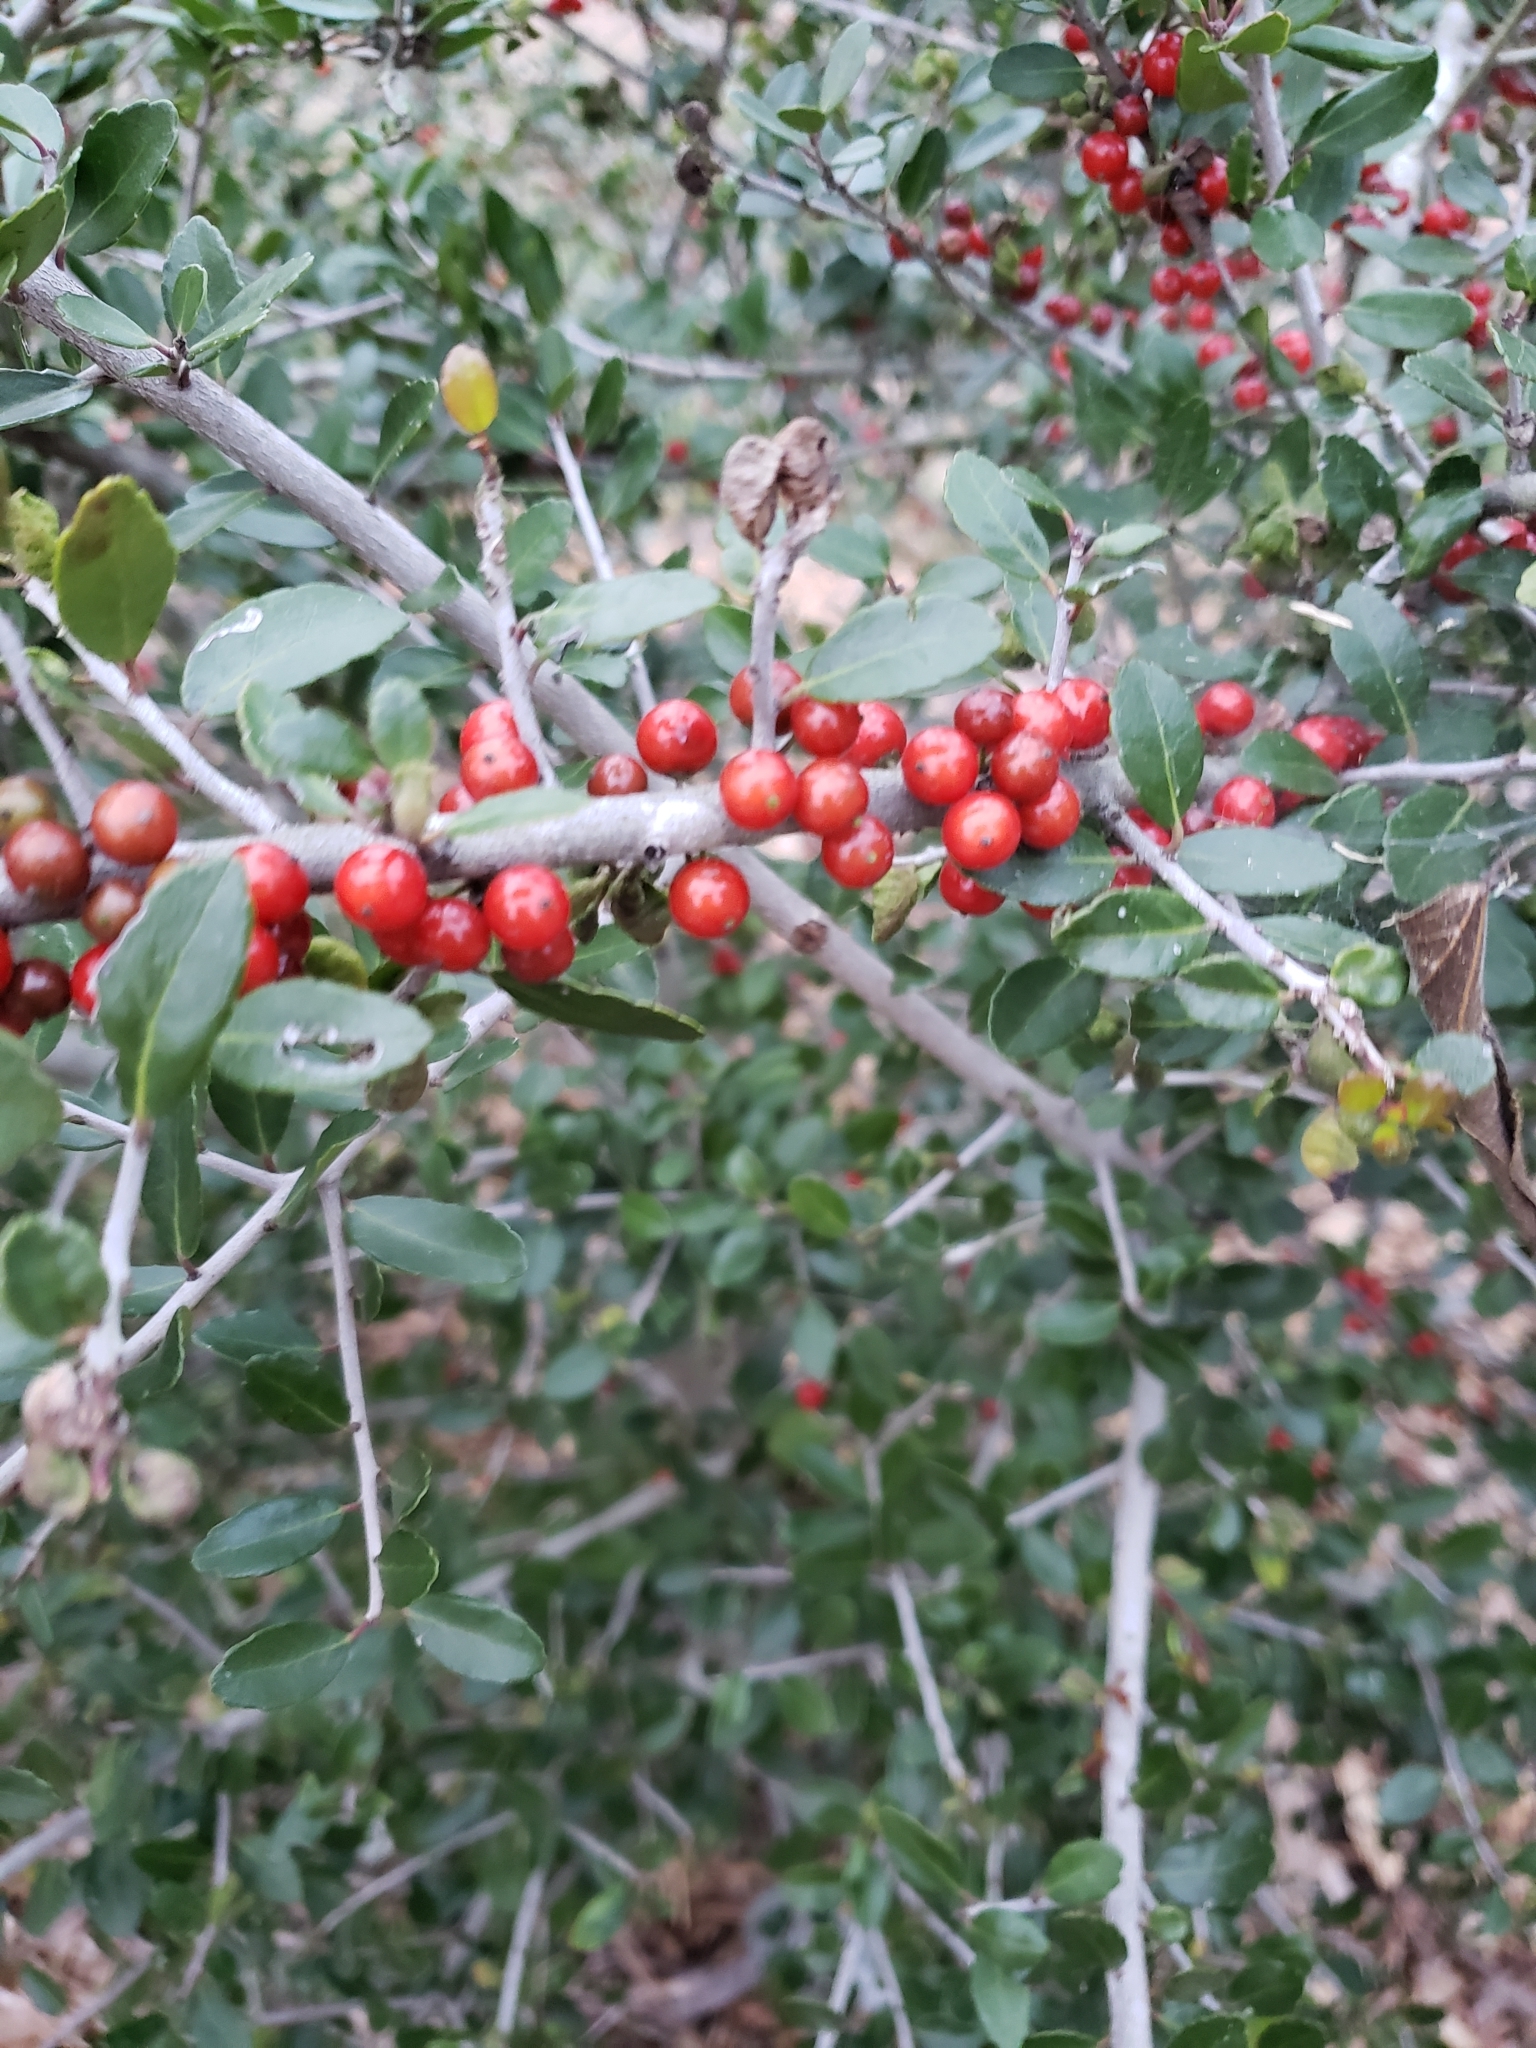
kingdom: Plantae
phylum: Tracheophyta
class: Magnoliopsida
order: Aquifoliales
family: Aquifoliaceae
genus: Ilex
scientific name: Ilex vomitoria
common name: Yaupon holly
